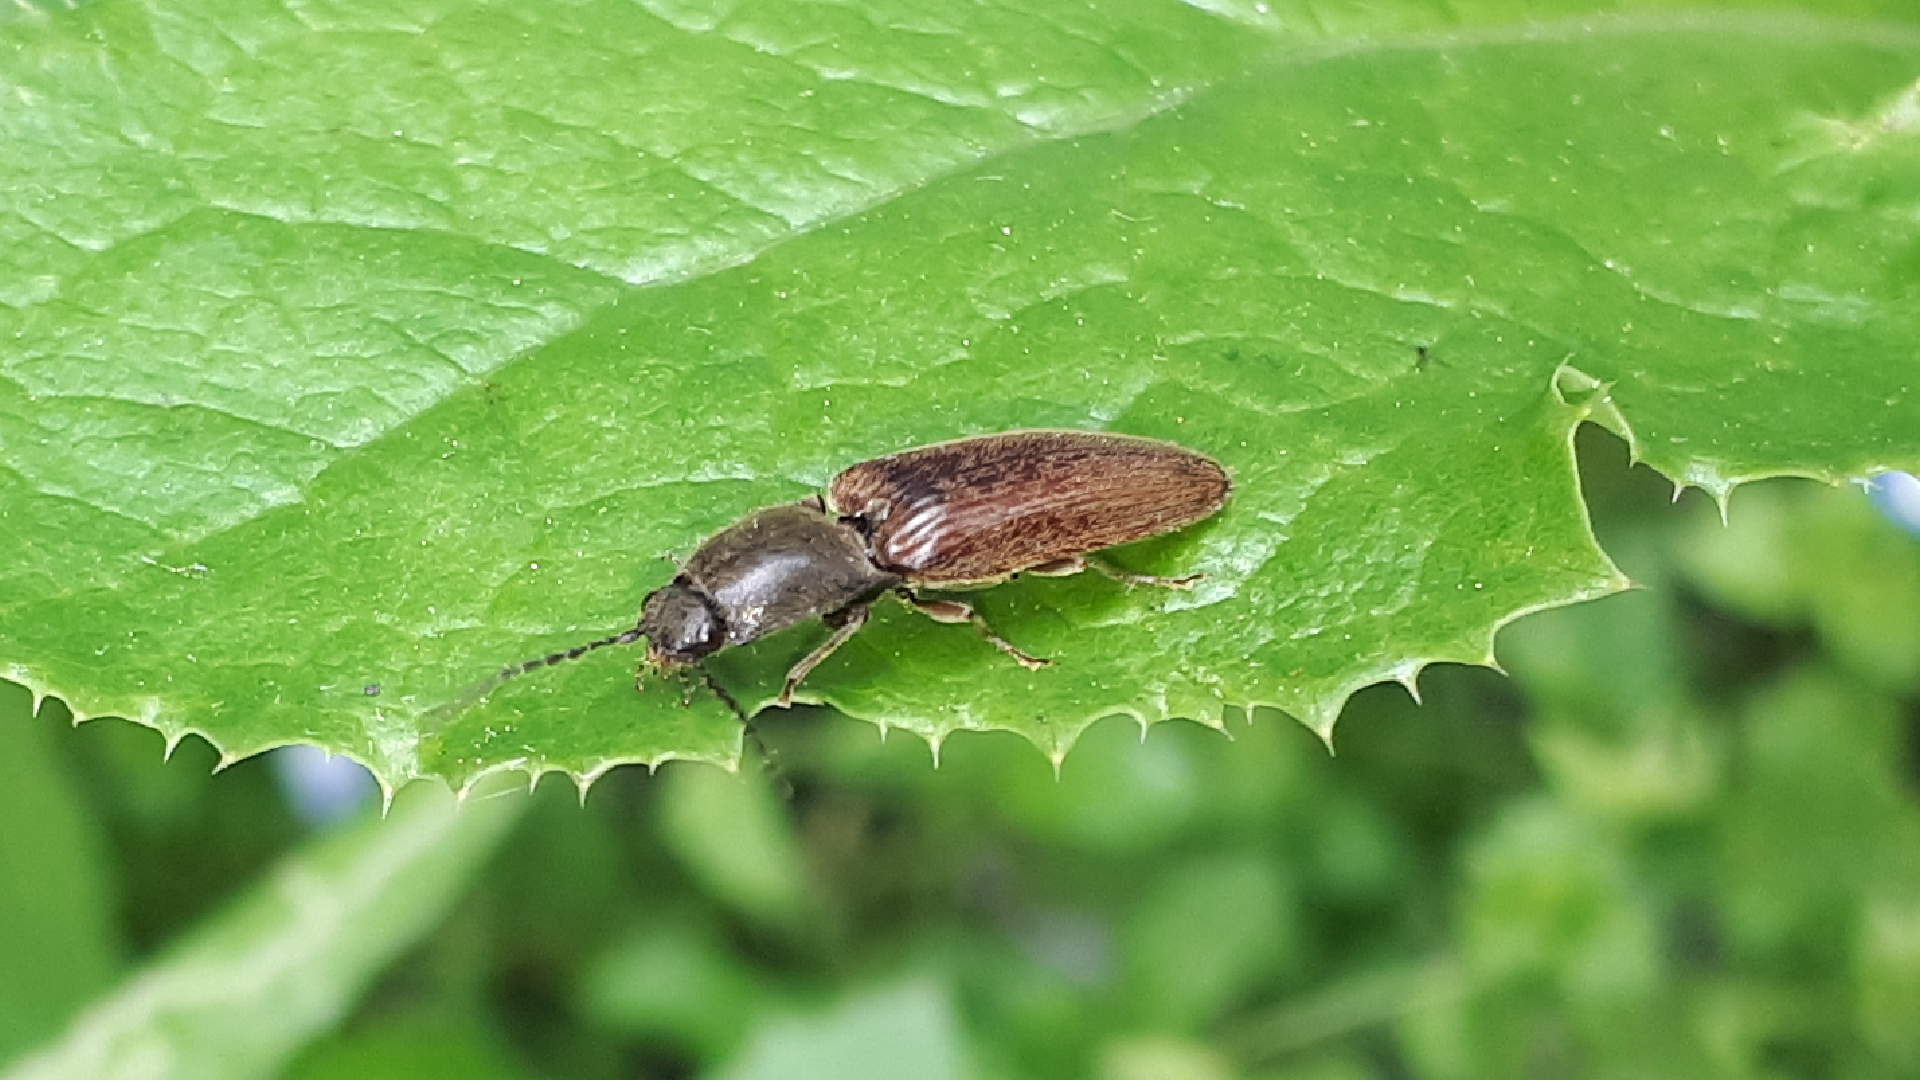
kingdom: Animalia
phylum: Arthropoda
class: Insecta
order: Coleoptera
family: Elateridae
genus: Athous
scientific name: Athous haemorrhoidalis
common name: Red-brown click beetle
